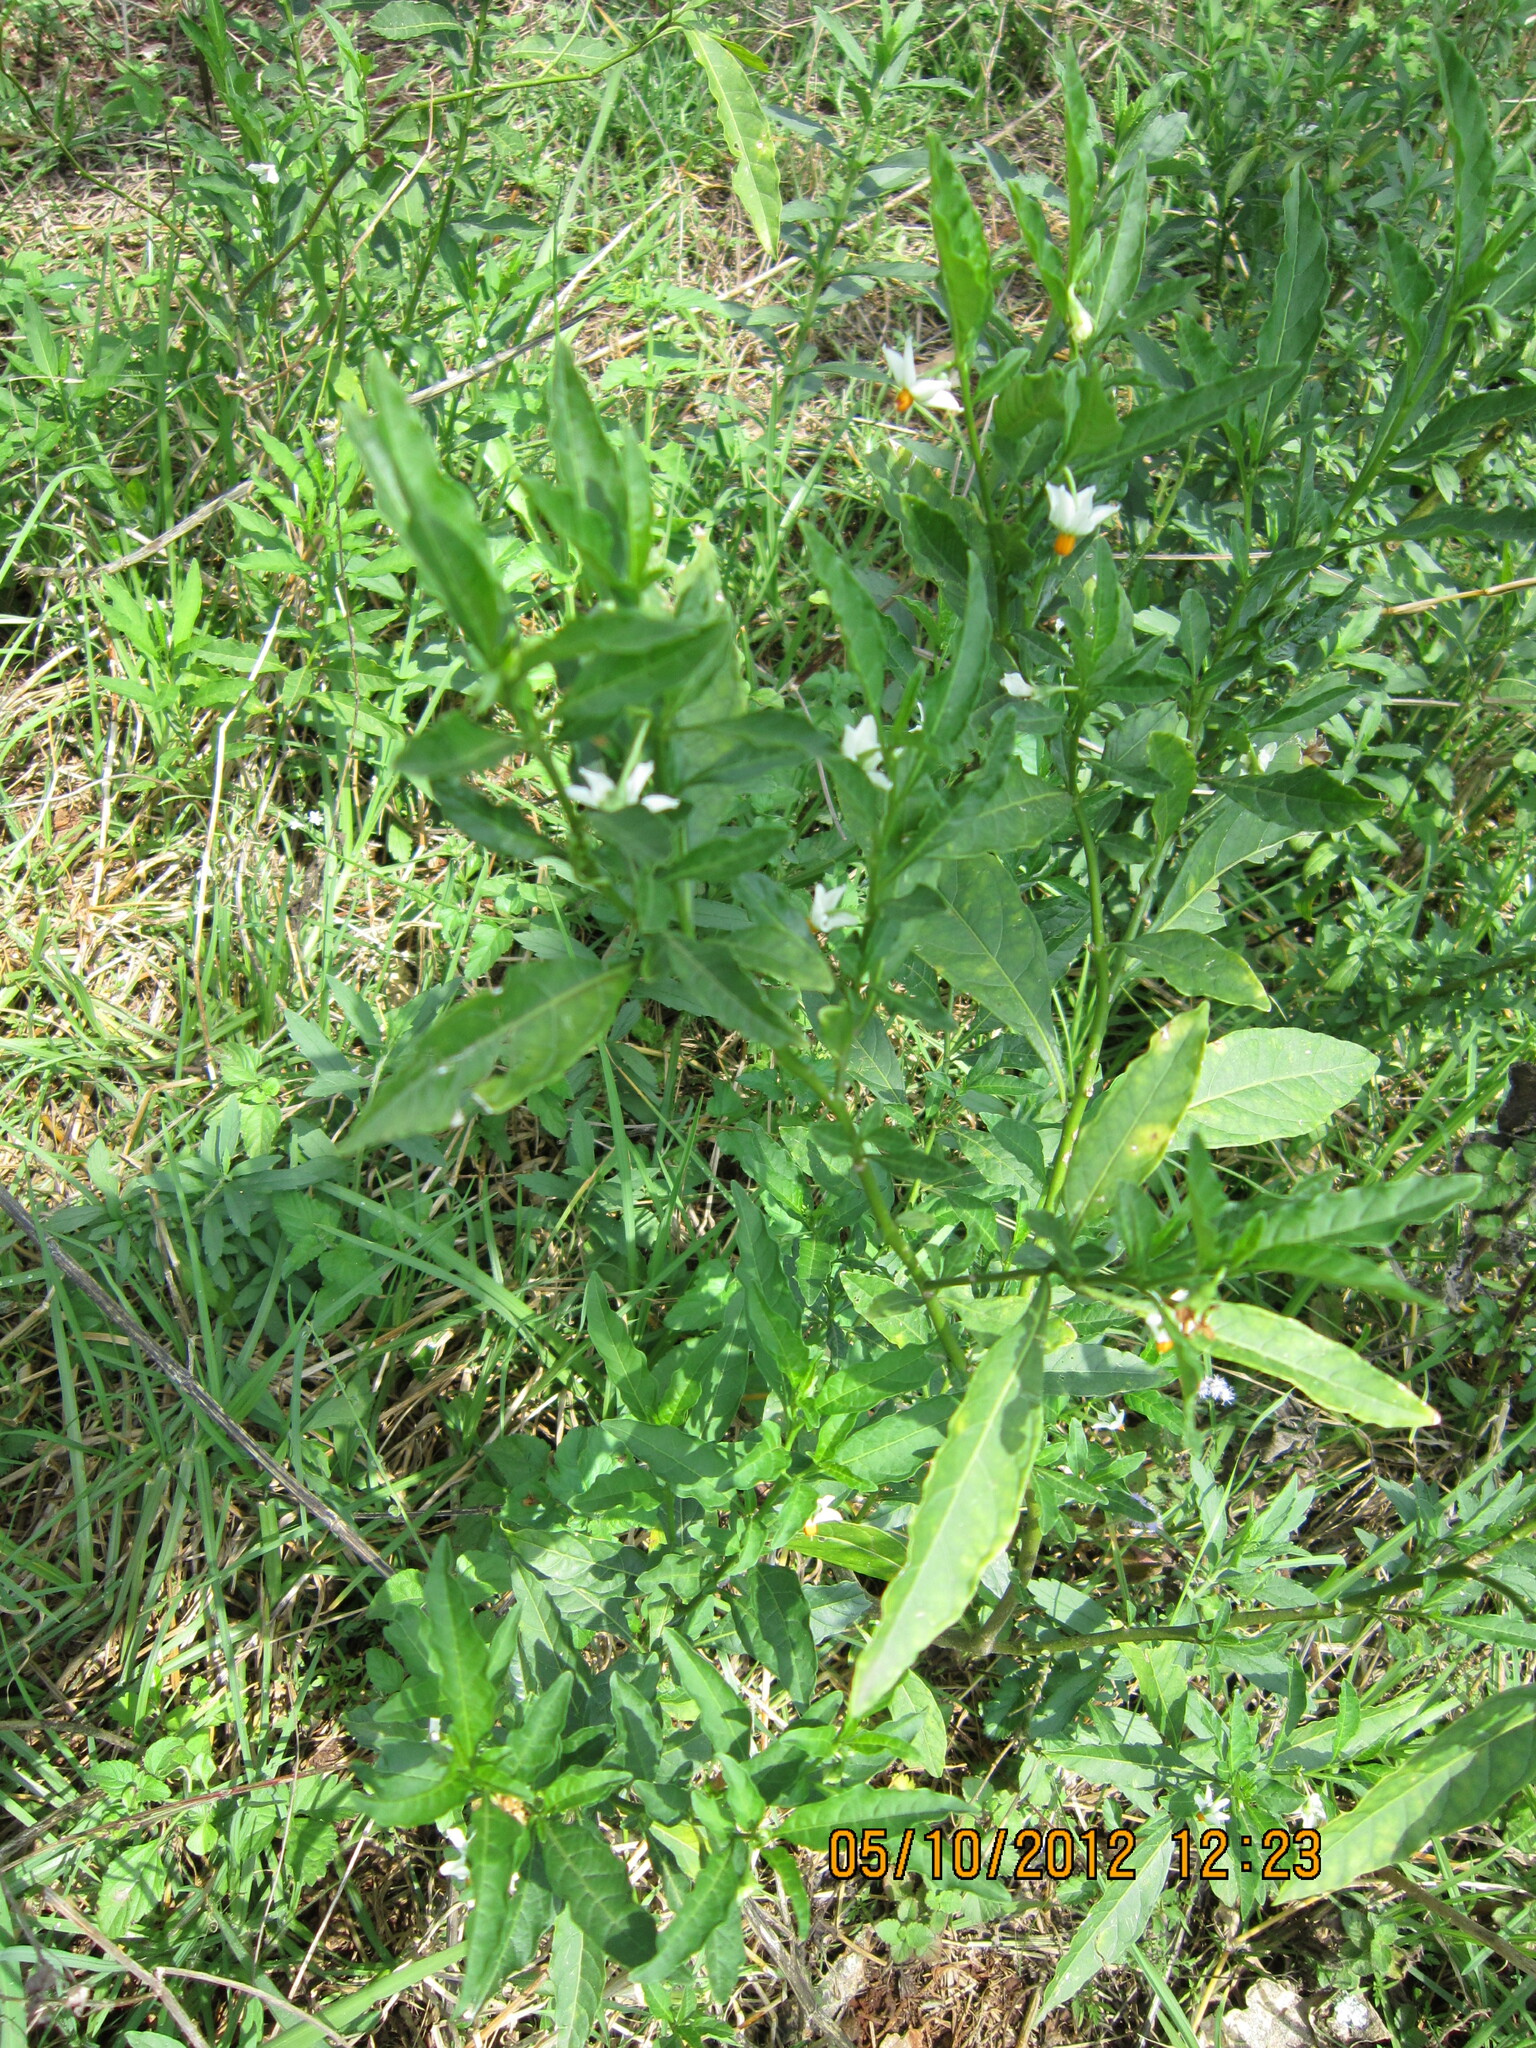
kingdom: Plantae
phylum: Tracheophyta
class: Magnoliopsida
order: Solanales
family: Solanaceae
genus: Solanum
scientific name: Solanum pseudocapsicum
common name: Jerusalem cherry
